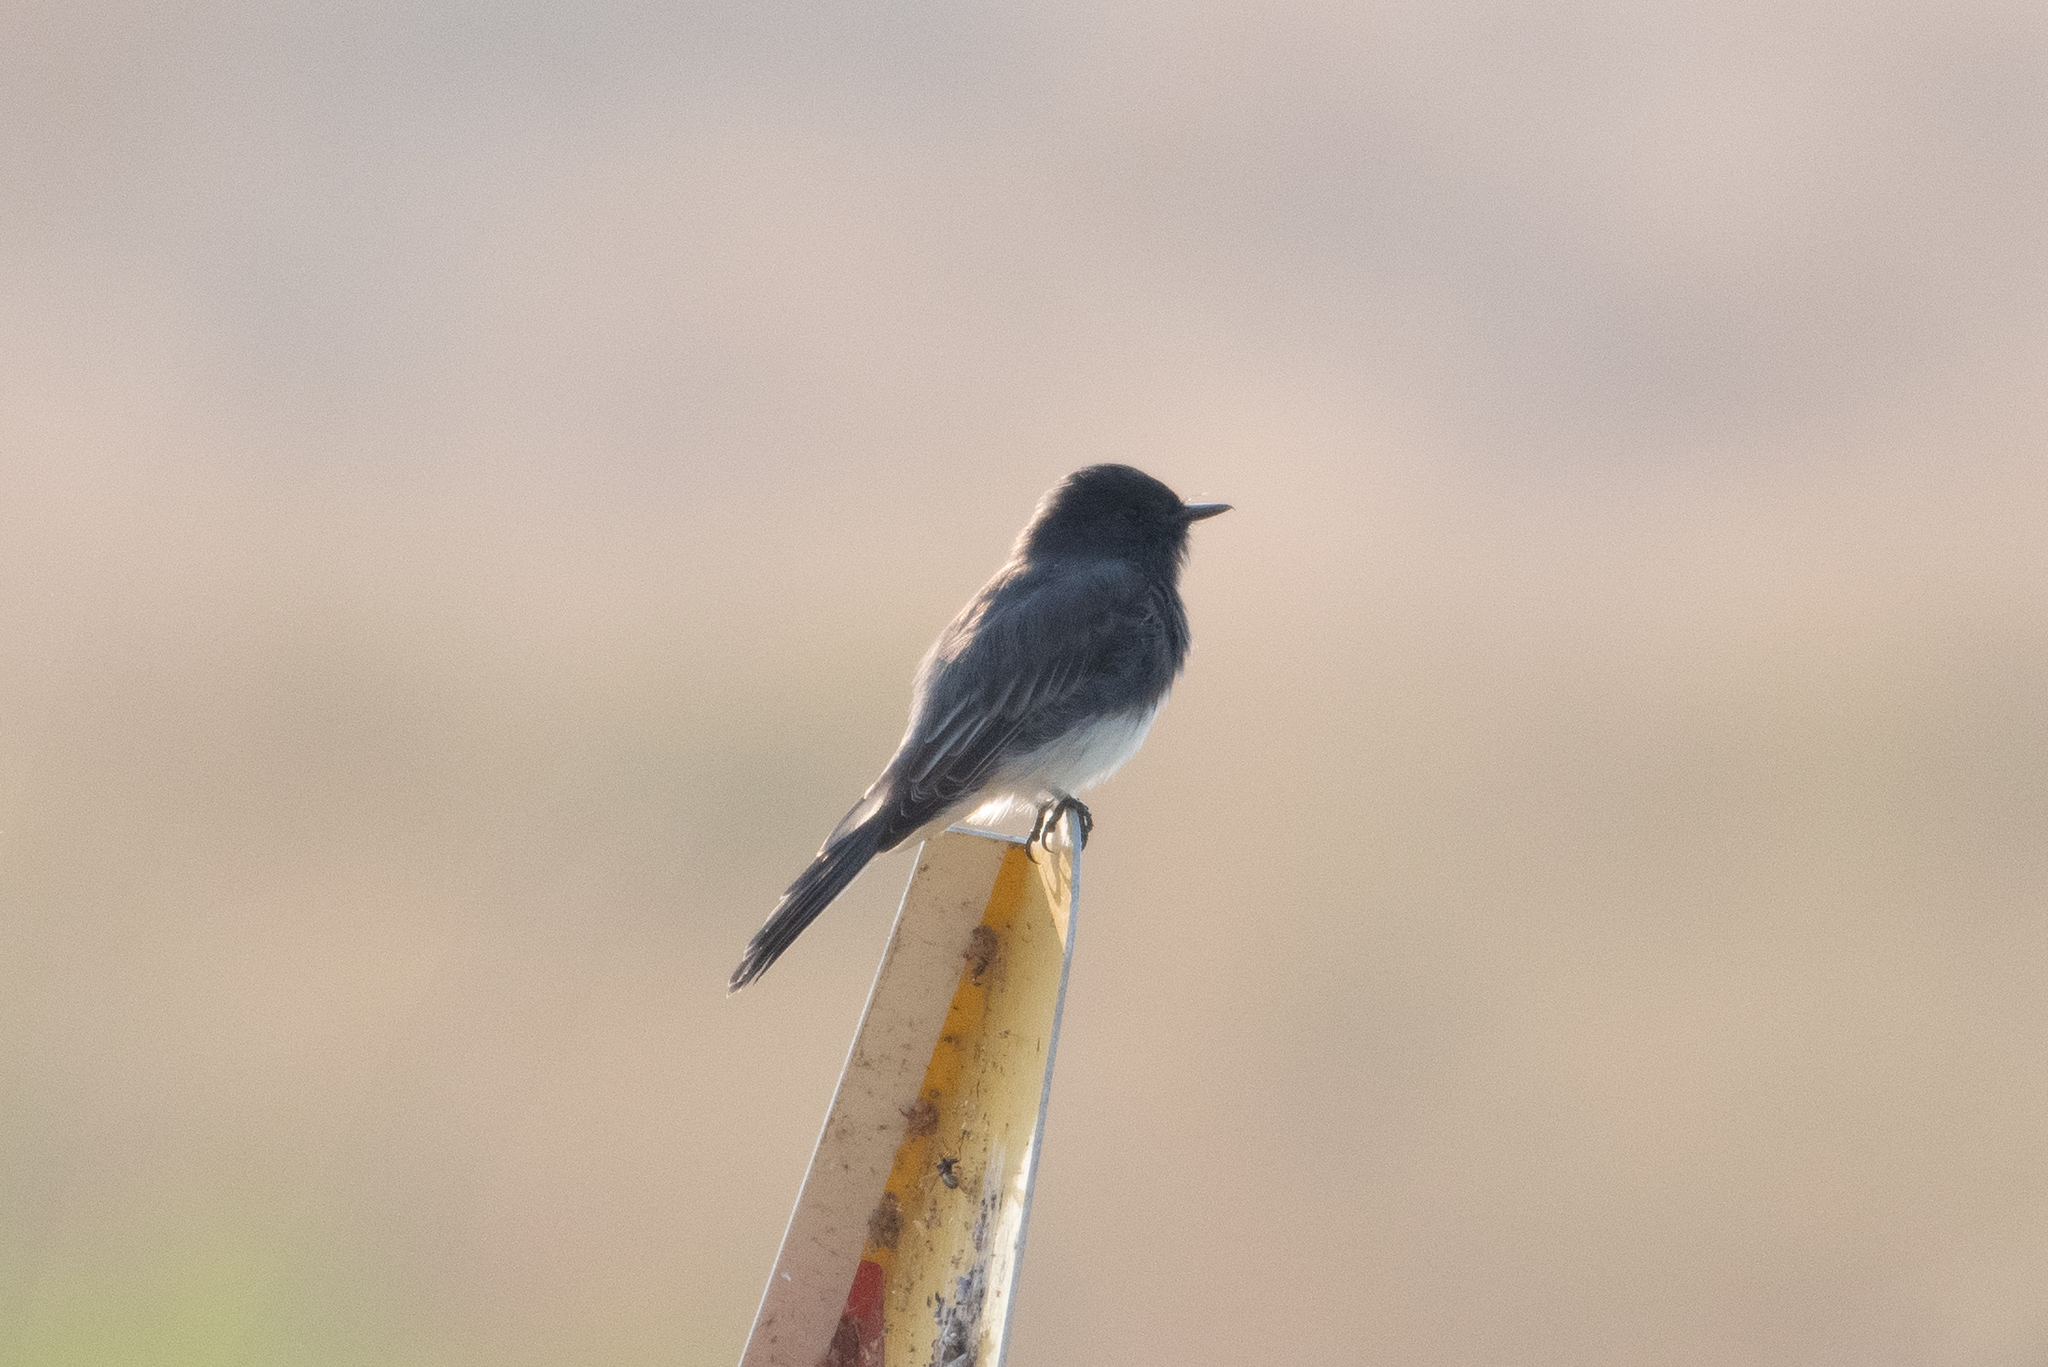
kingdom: Animalia
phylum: Chordata
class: Aves
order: Passeriformes
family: Tyrannidae
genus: Sayornis
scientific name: Sayornis nigricans
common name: Black phoebe
